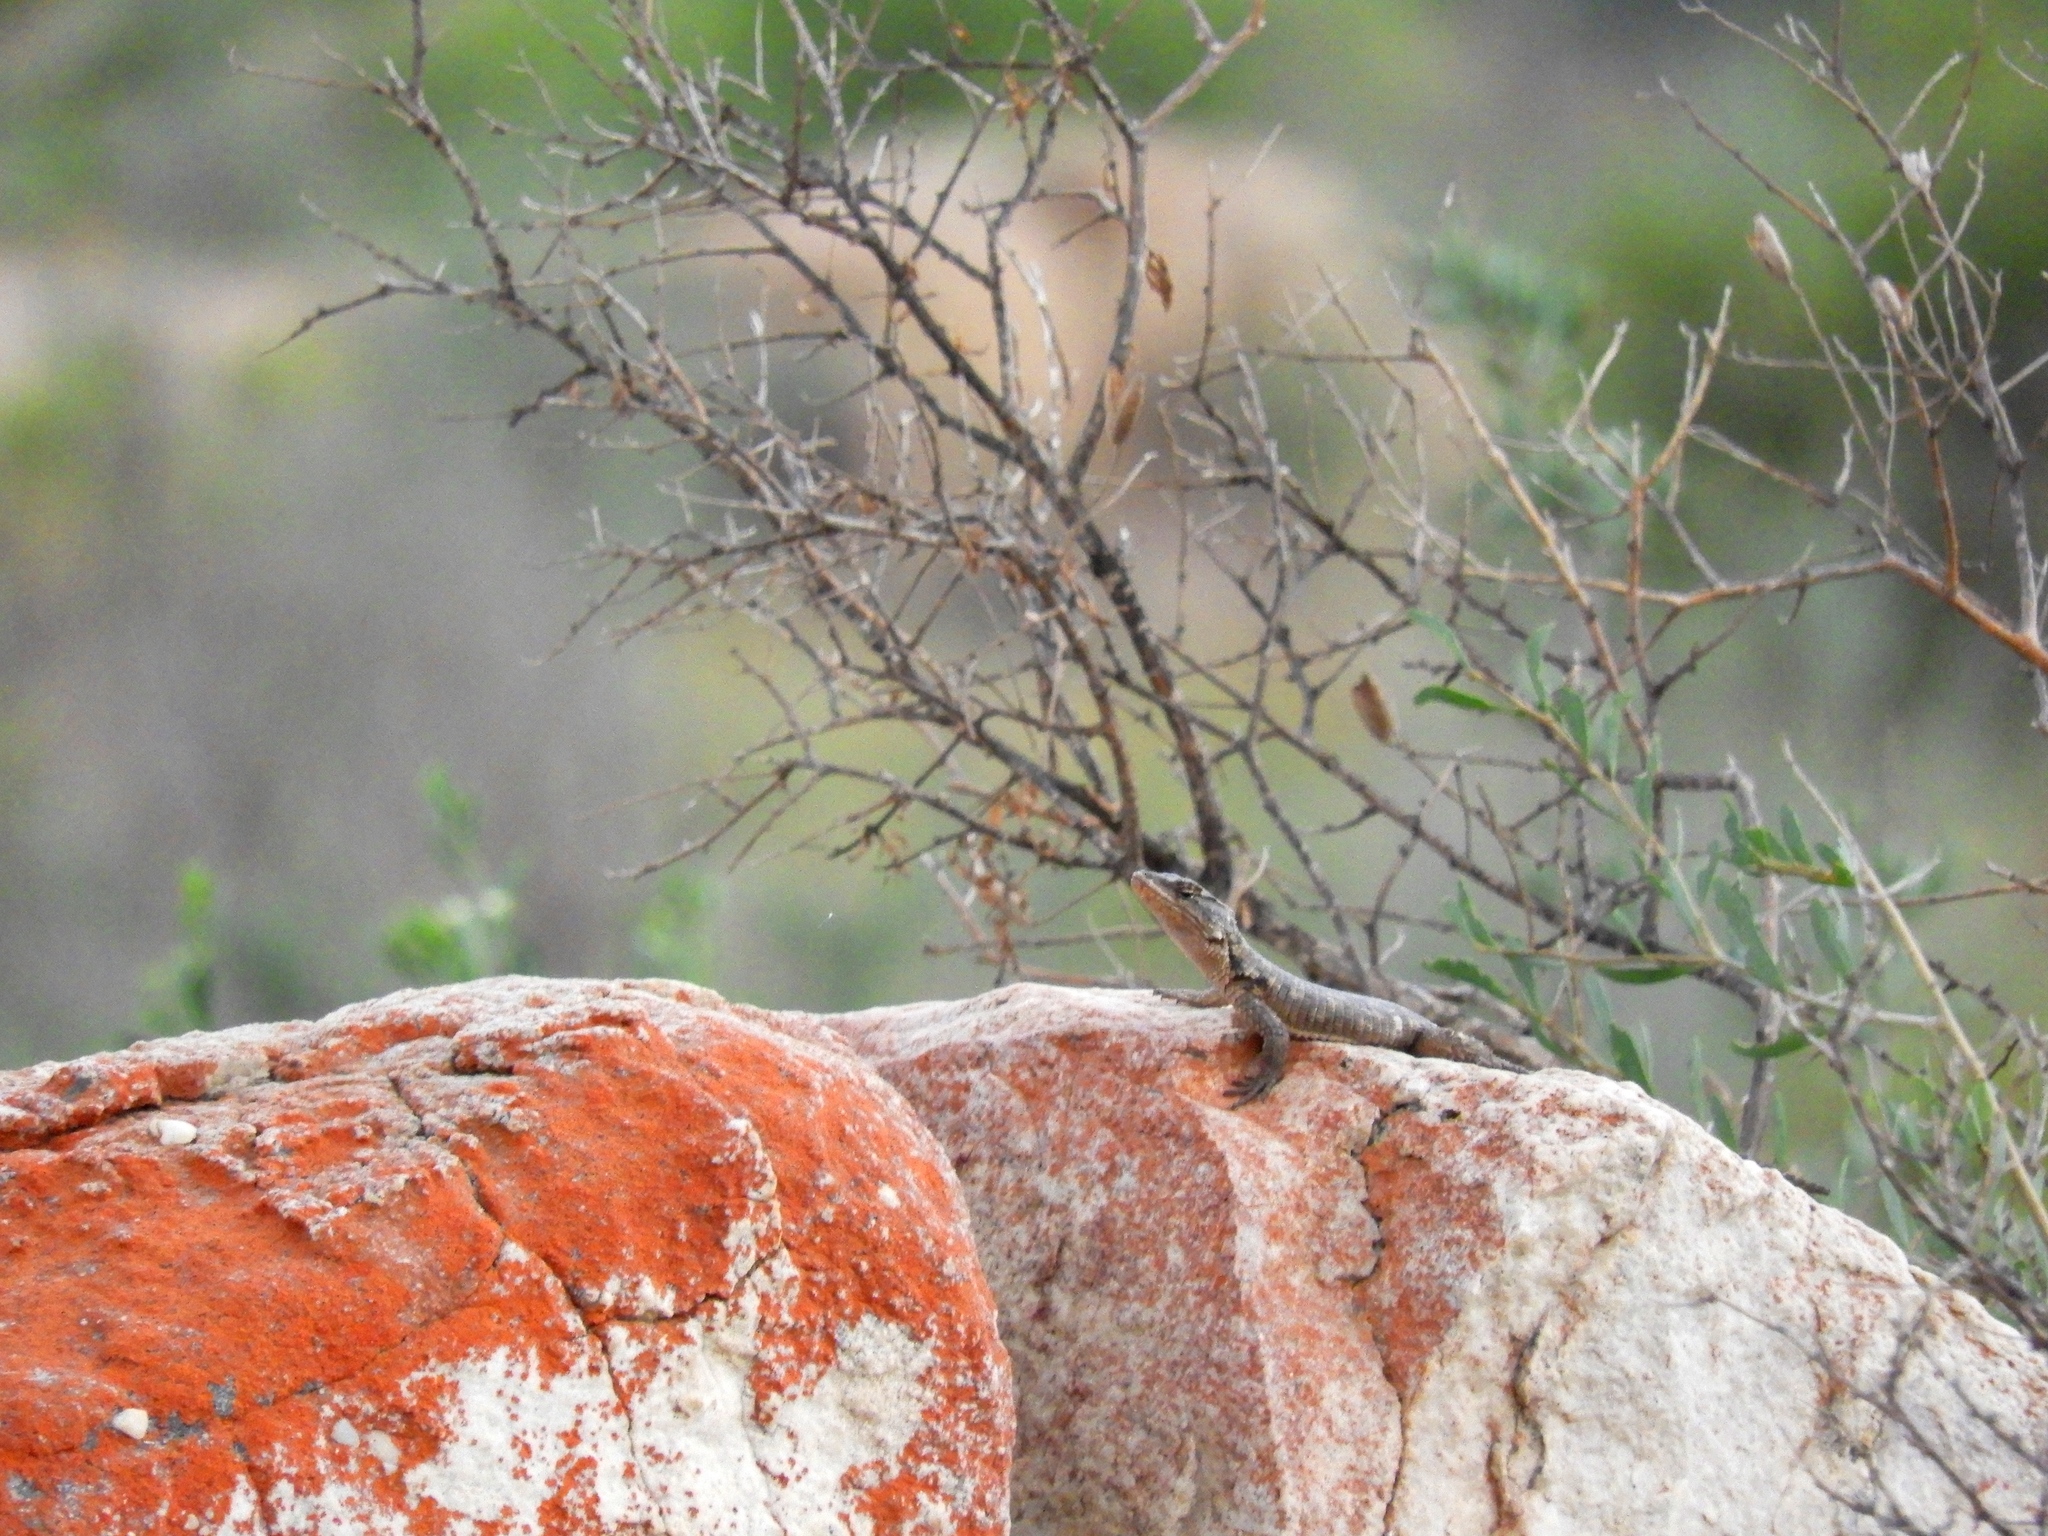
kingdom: Animalia
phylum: Chordata
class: Squamata
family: Cordylidae
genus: Karusasaurus
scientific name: Karusasaurus polyzonus
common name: Karoo girdled lizard
